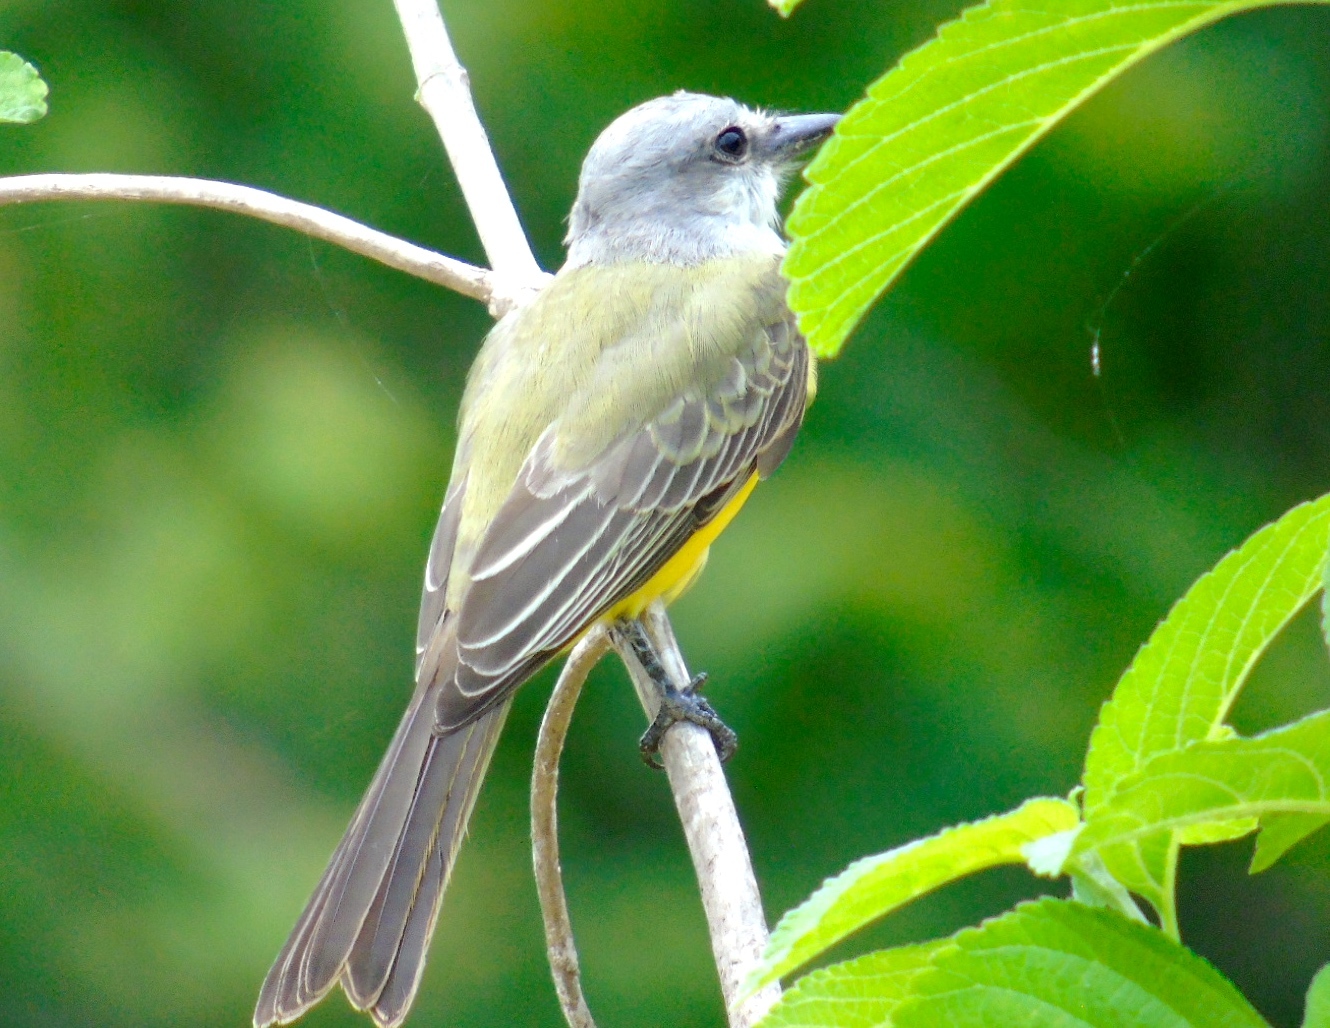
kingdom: Animalia
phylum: Chordata
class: Aves
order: Passeriformes
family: Tyrannidae
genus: Tyrannus
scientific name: Tyrannus melancholicus
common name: Tropical kingbird
